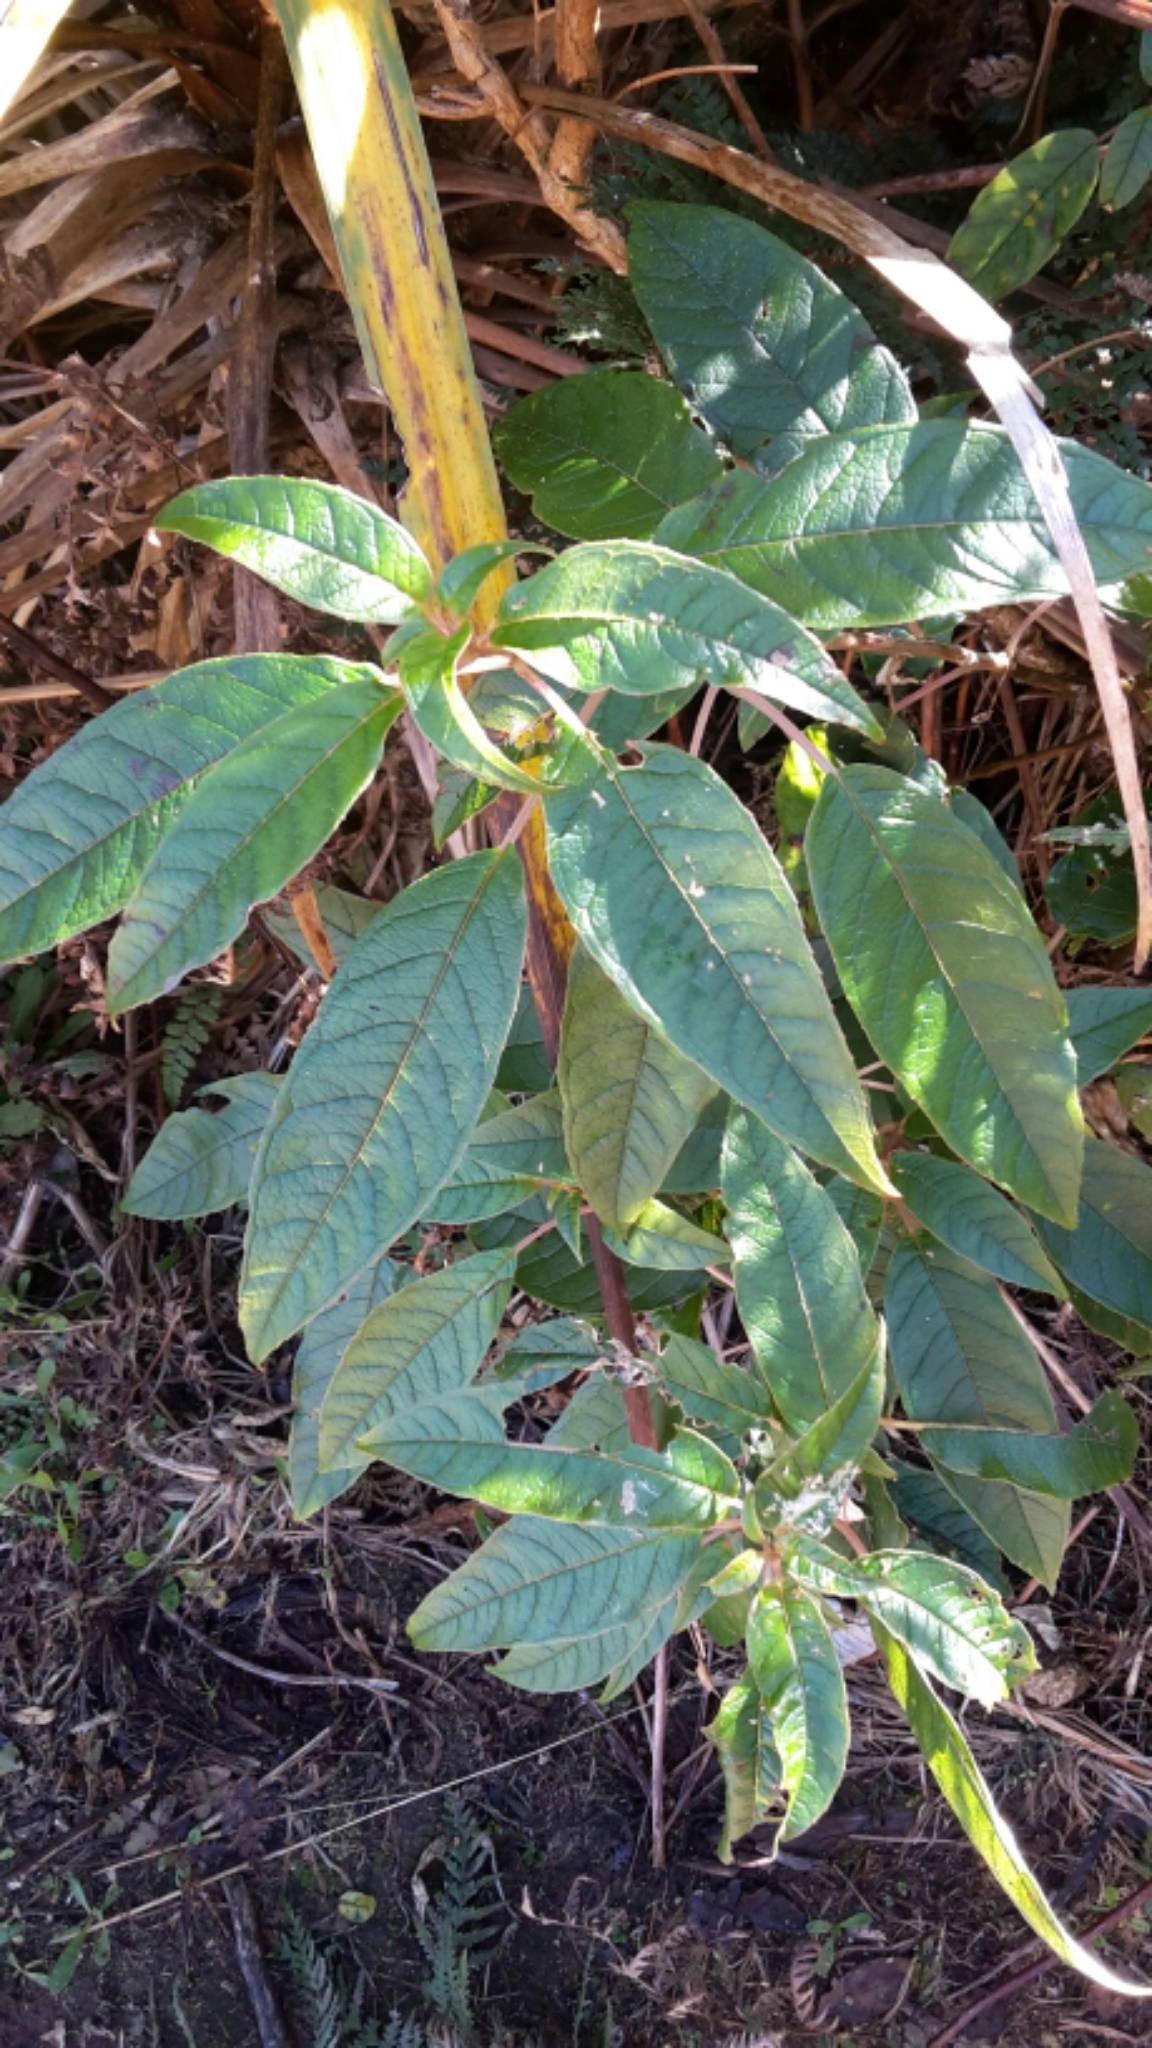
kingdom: Plantae
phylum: Tracheophyta
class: Magnoliopsida
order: Myrtales
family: Onagraceae
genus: Fuchsia
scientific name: Fuchsia excorticata
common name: Tree fuchsia
